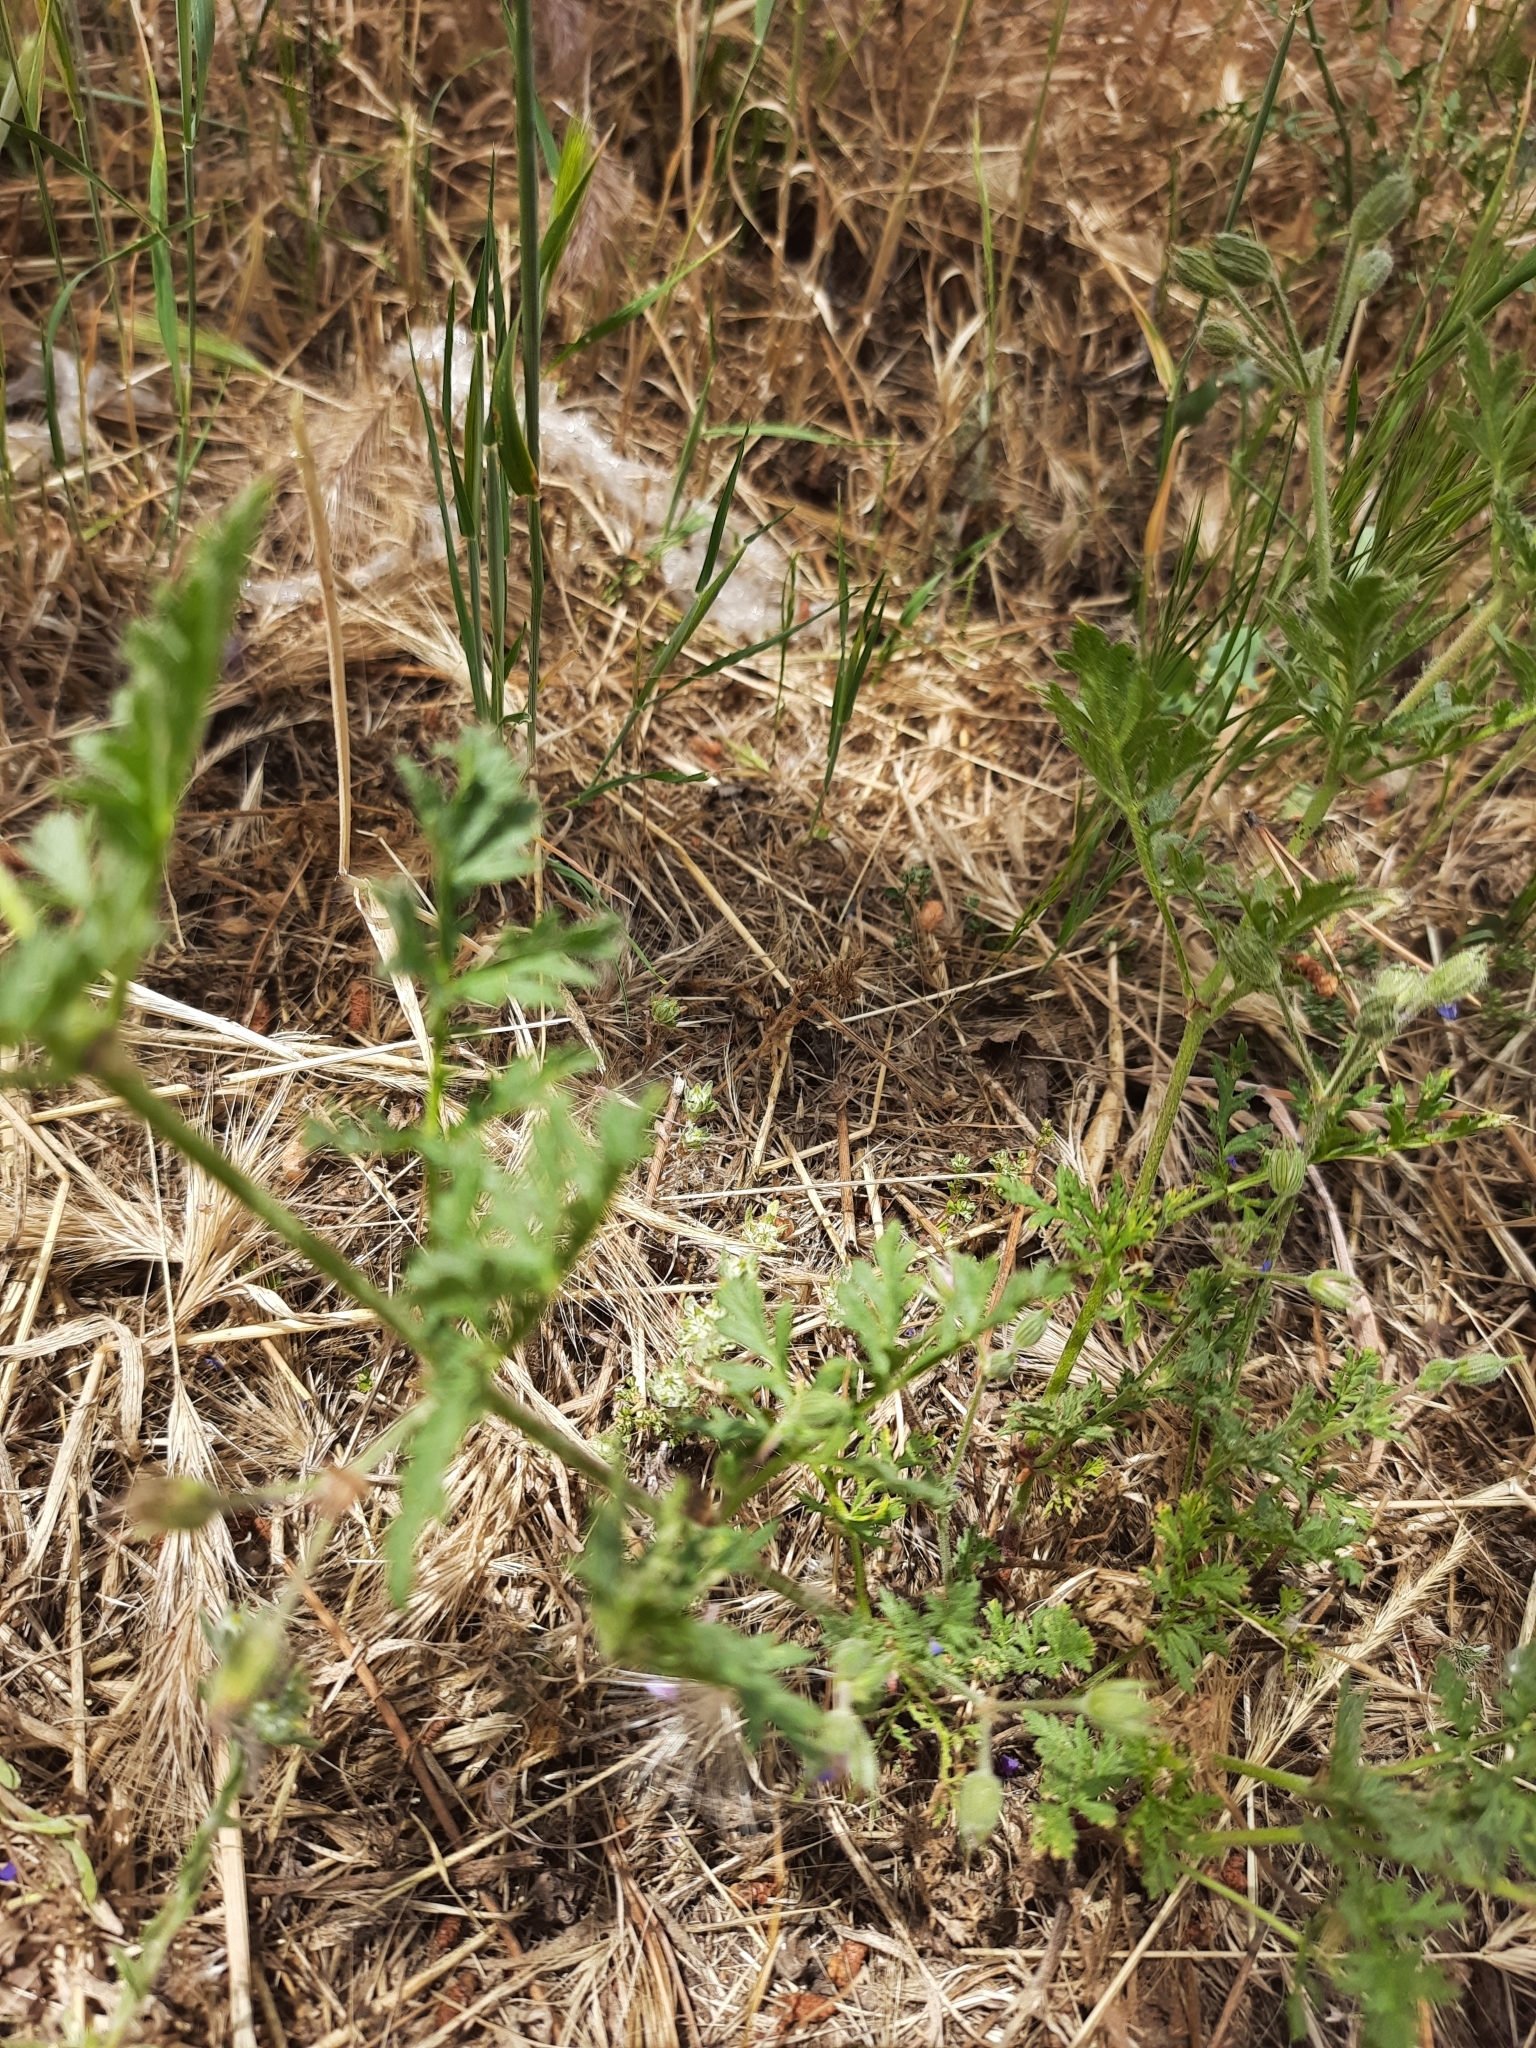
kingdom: Plantae
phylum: Tracheophyta
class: Magnoliopsida
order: Geraniales
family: Geraniaceae
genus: Erodium
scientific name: Erodium ciconium
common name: Common stork's bill
